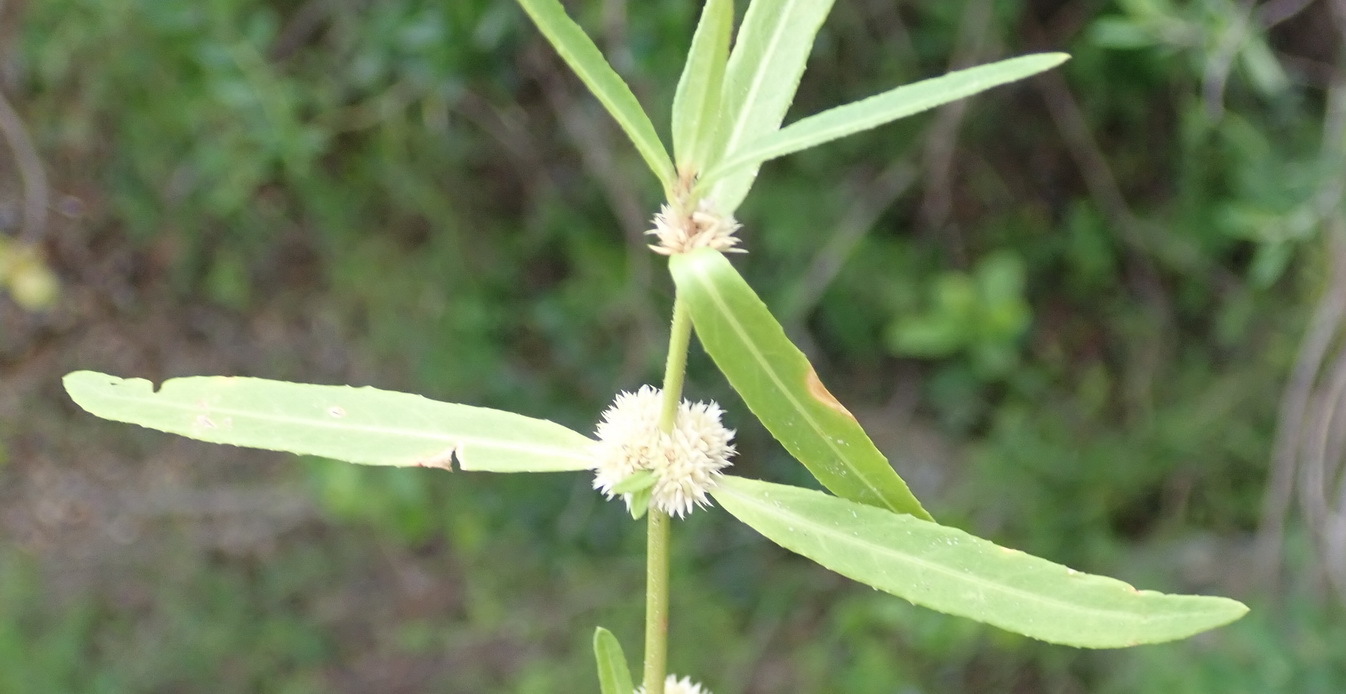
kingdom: Plantae
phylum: Tracheophyta
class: Magnoliopsida
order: Caryophyllales
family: Amaranthaceae
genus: Alternanthera
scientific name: Alternanthera sessilis
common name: Sessile joyweed
